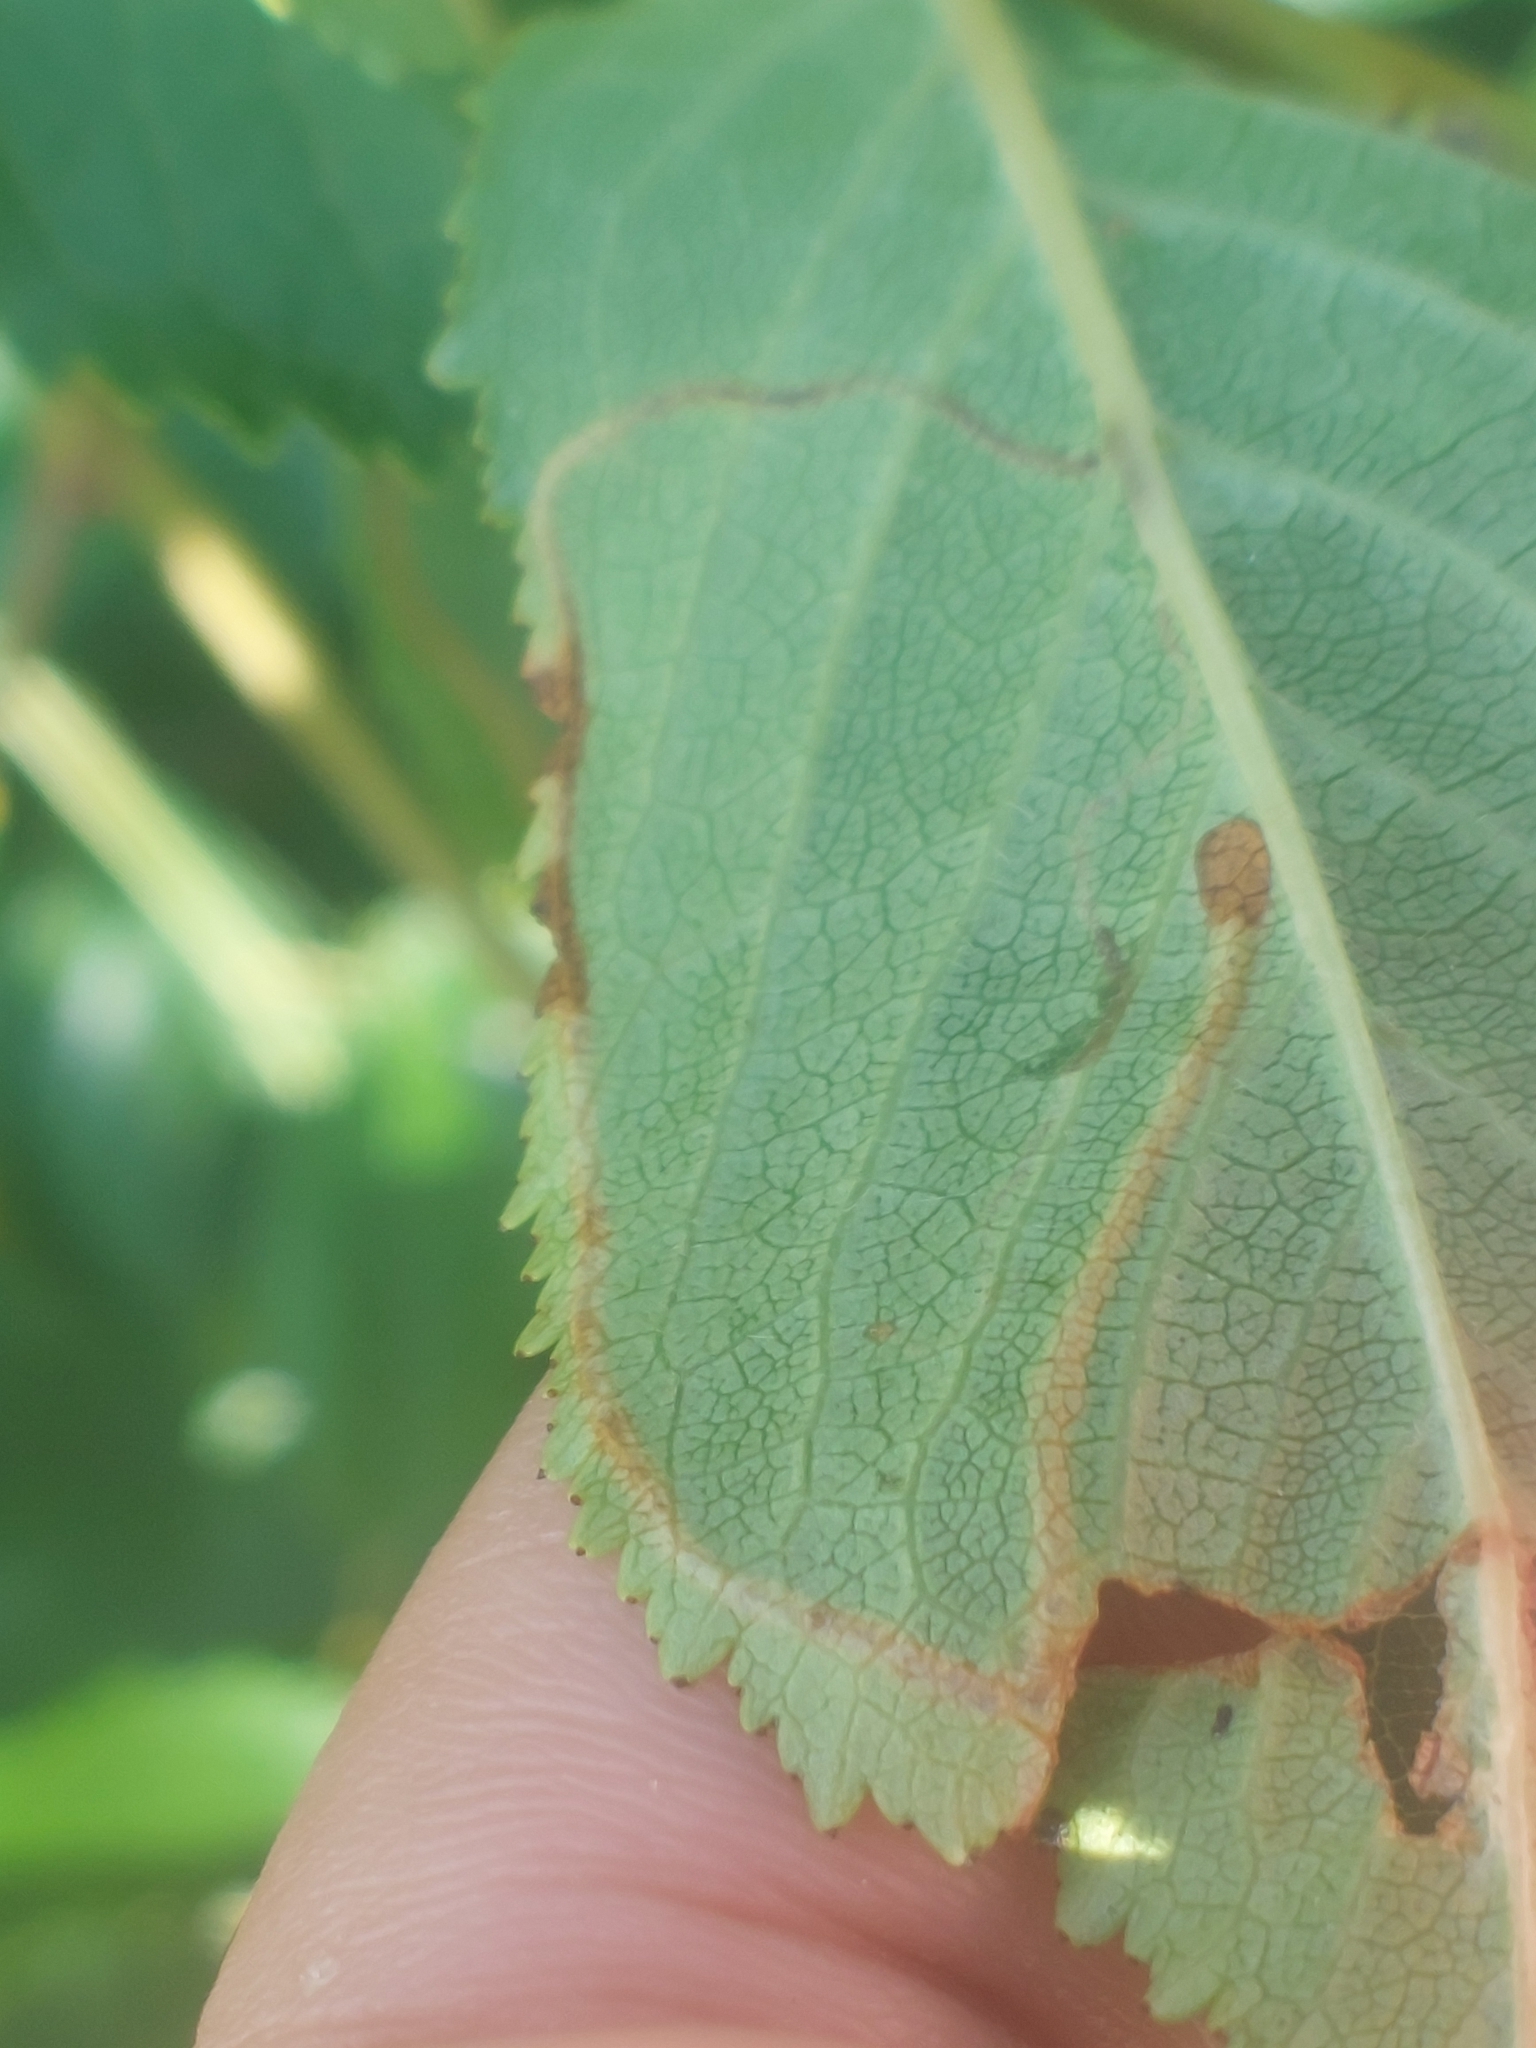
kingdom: Animalia
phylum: Arthropoda
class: Insecta
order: Lepidoptera
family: Lyonetiidae
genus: Lyonetia
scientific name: Lyonetia clerkella
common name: Apple leaf miner
